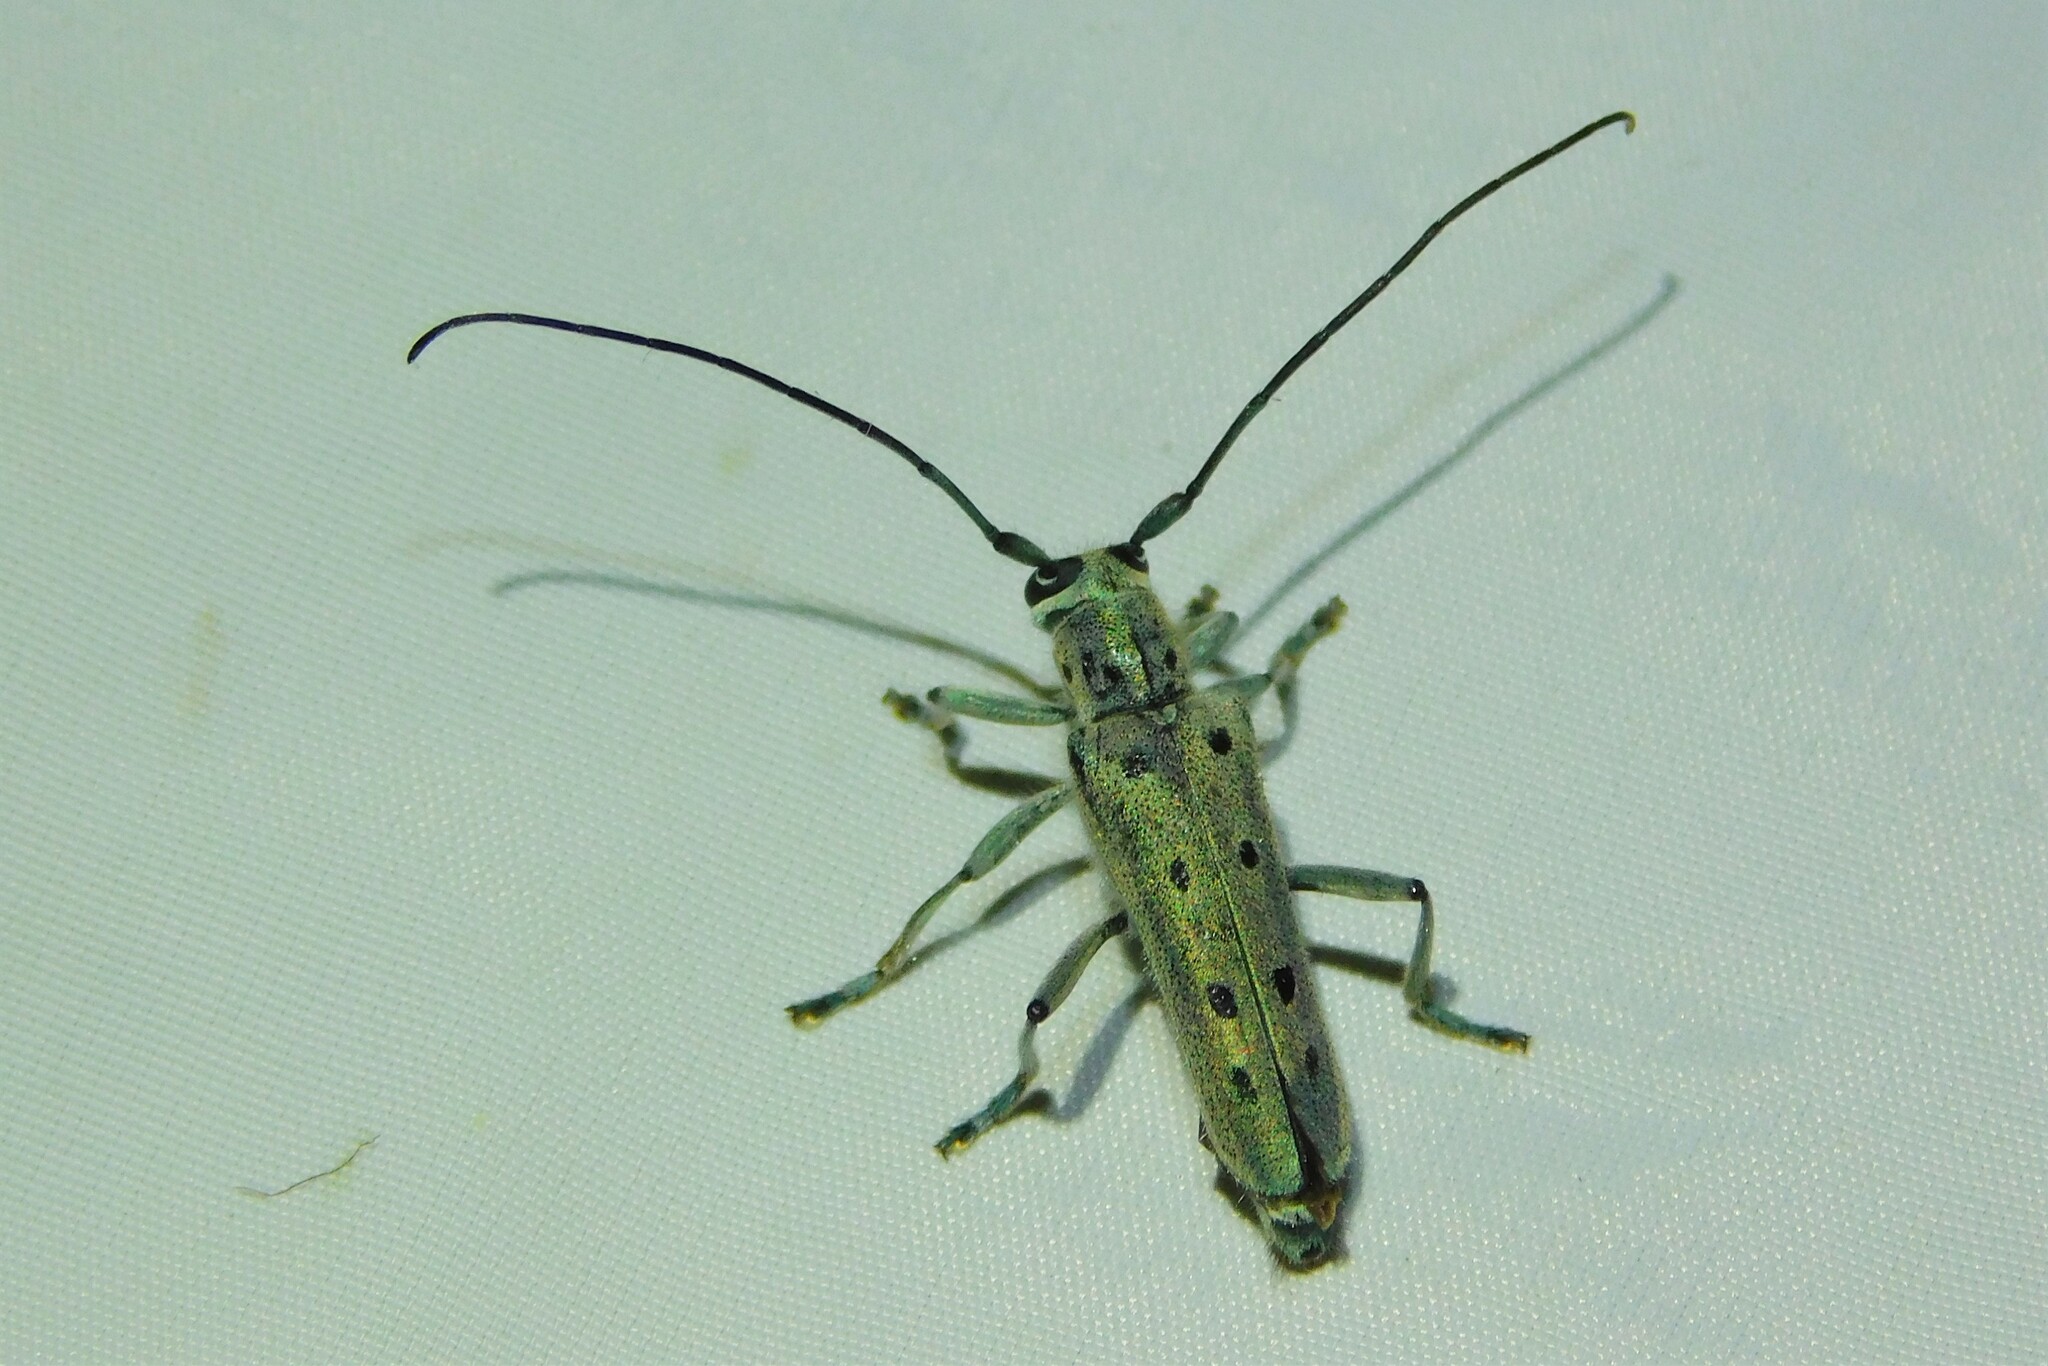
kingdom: Animalia
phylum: Arthropoda
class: Insecta
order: Coleoptera
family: Cerambycidae
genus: Saperda
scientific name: Saperda octopunctata
